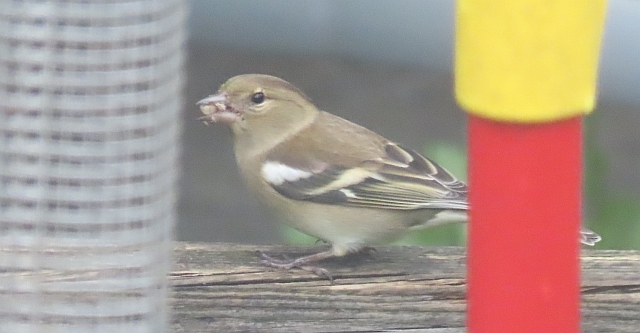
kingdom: Animalia
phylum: Chordata
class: Aves
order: Passeriformes
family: Fringillidae
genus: Fringilla
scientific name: Fringilla coelebs
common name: Common chaffinch
